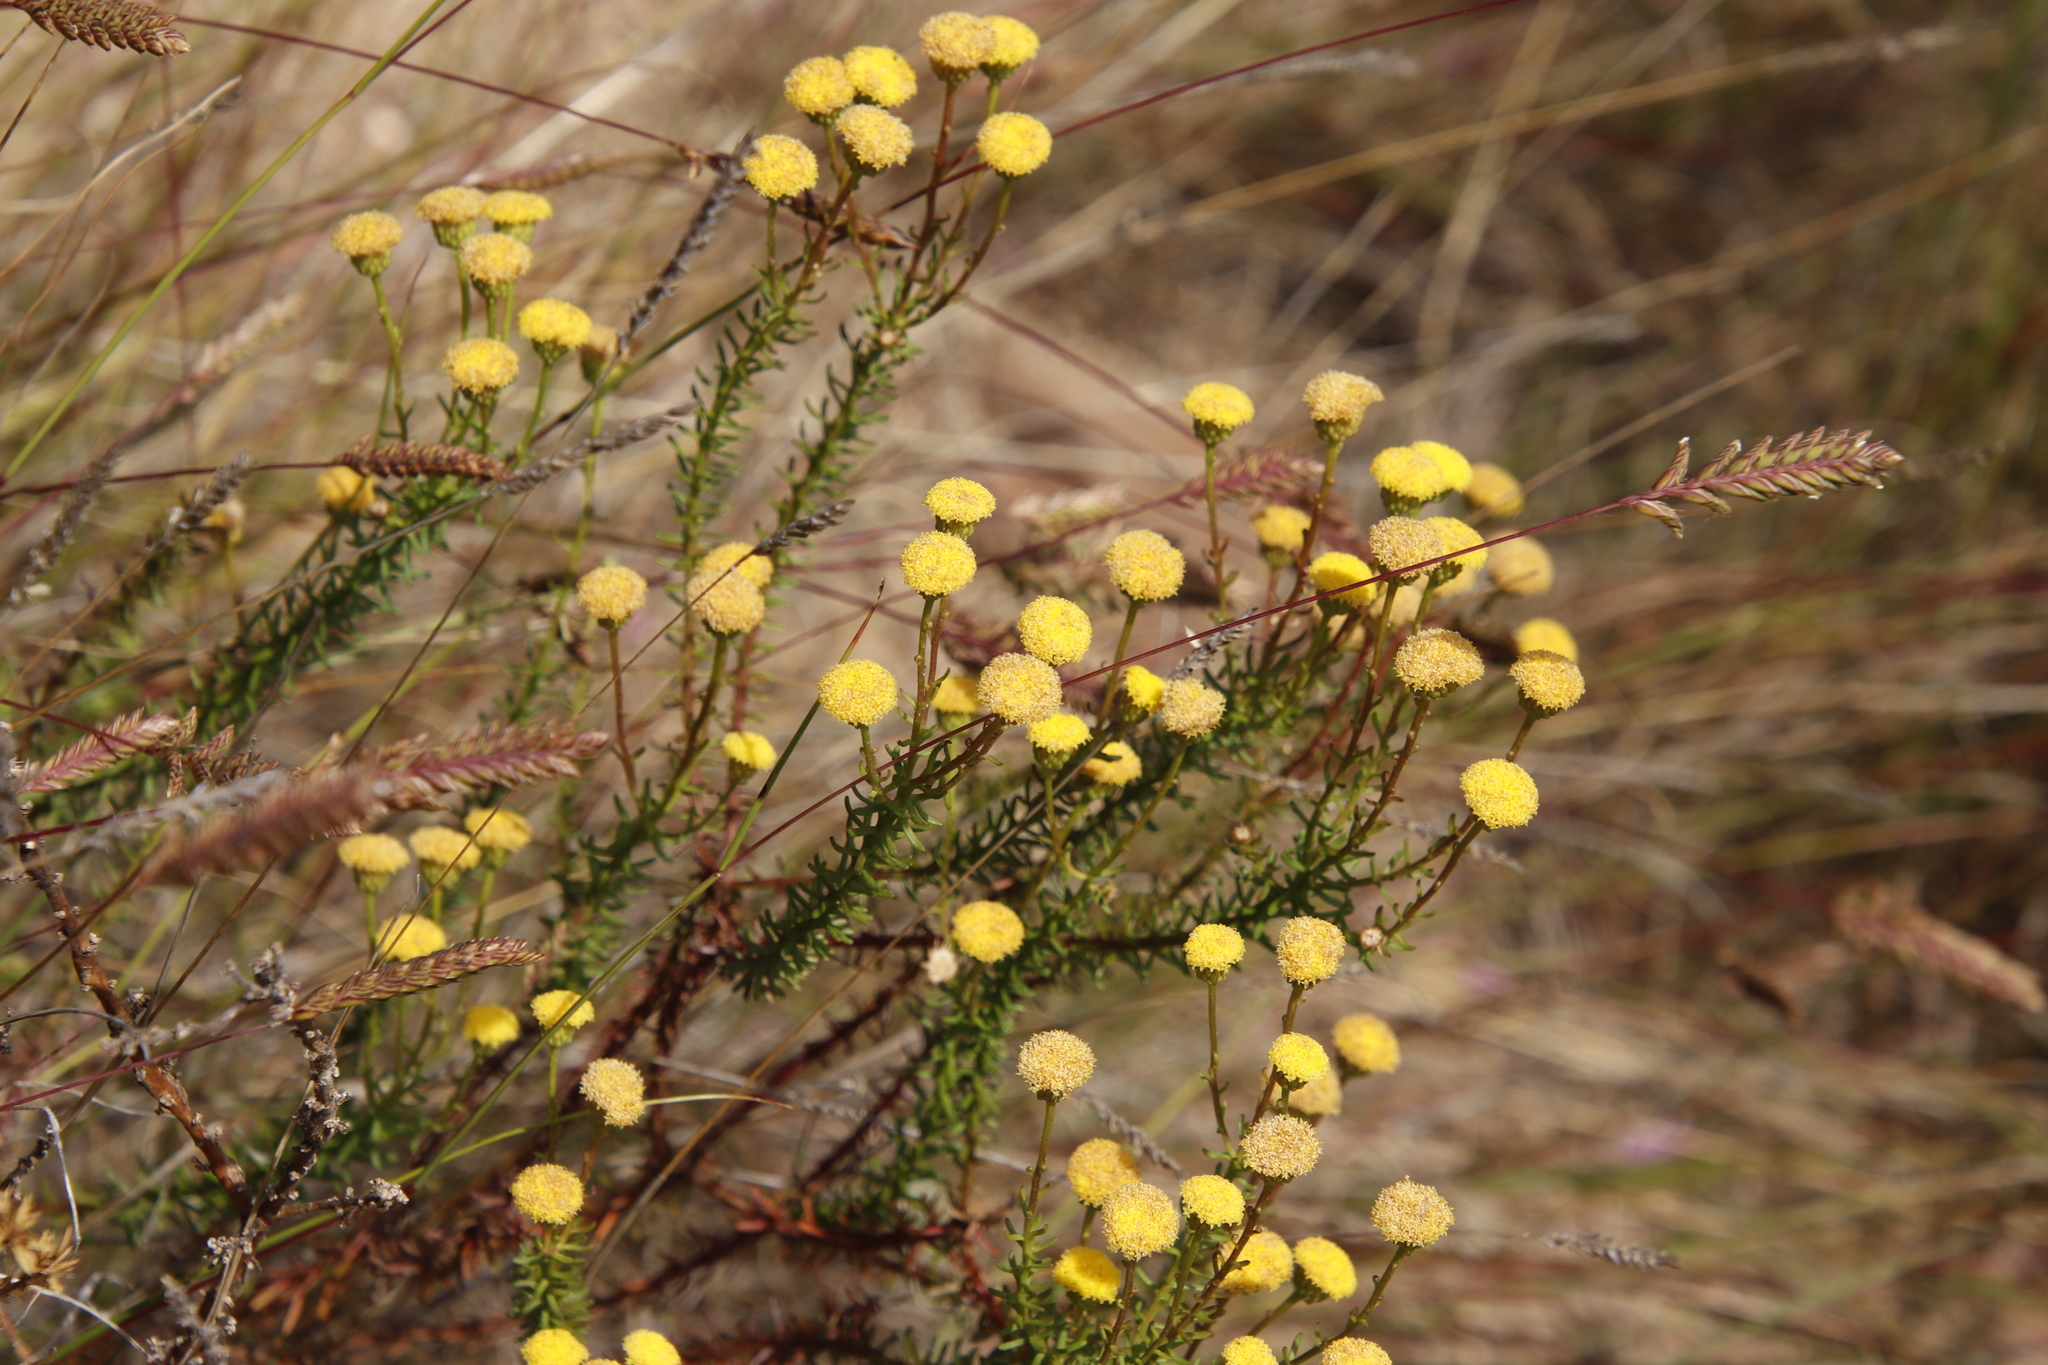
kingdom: Plantae
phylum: Tracheophyta
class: Magnoliopsida
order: Asterales
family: Asteraceae
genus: Chrysocoma
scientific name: Chrysocoma cernua
